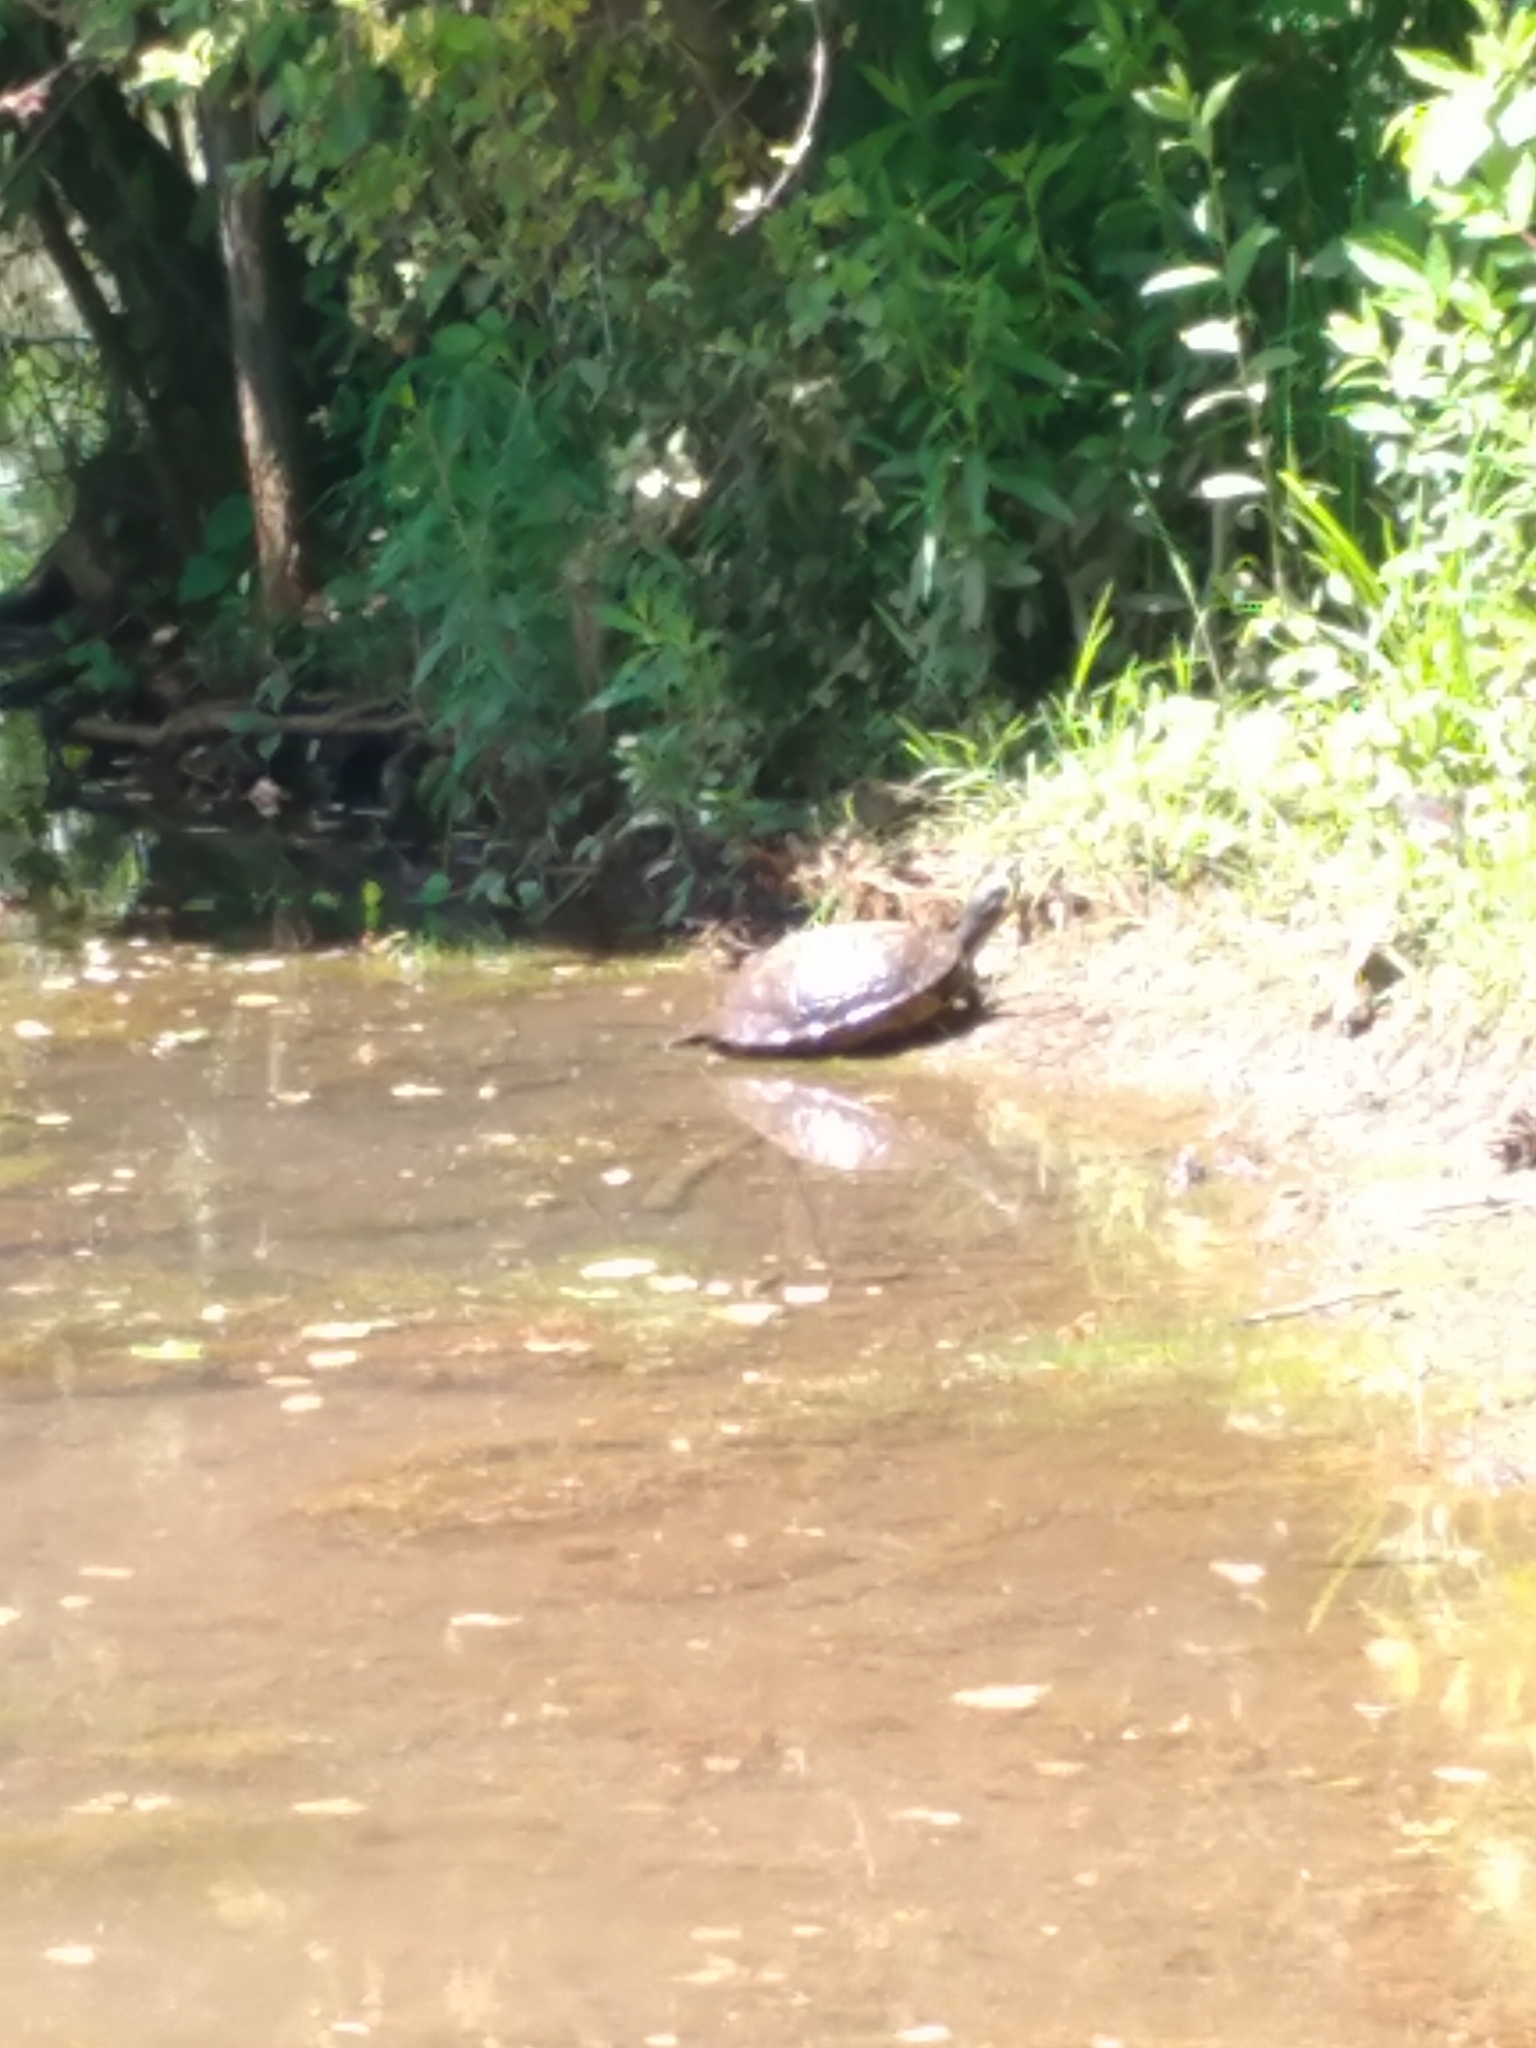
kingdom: Animalia
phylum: Chordata
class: Testudines
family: Emydidae
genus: Trachemys
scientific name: Trachemys scripta
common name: Slider
